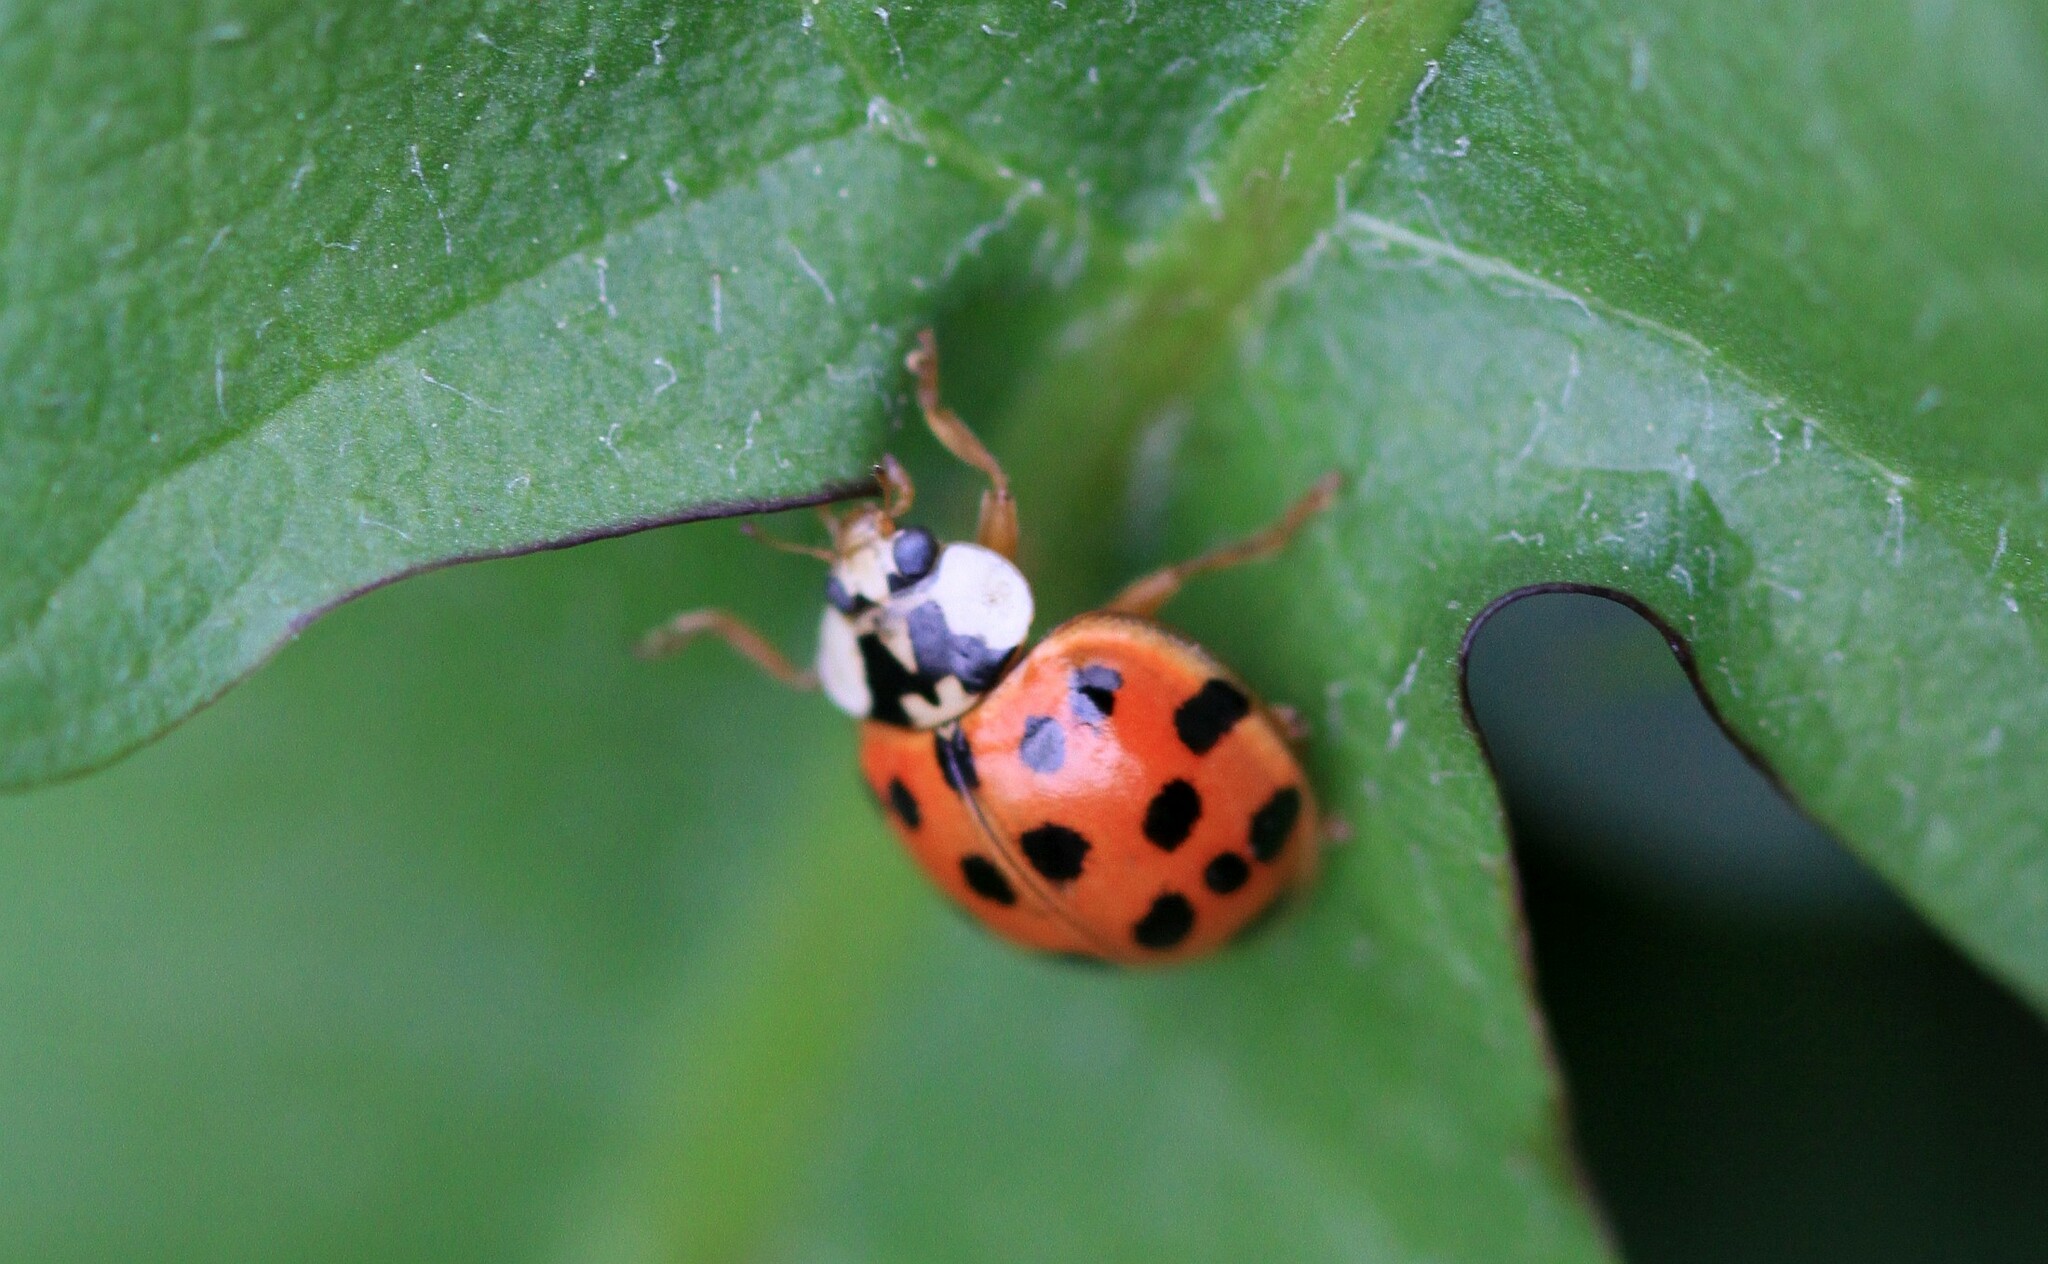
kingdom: Animalia
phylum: Arthropoda
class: Insecta
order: Coleoptera
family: Coccinellidae
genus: Harmonia
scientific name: Harmonia axyridis
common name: Harlequin ladybird
